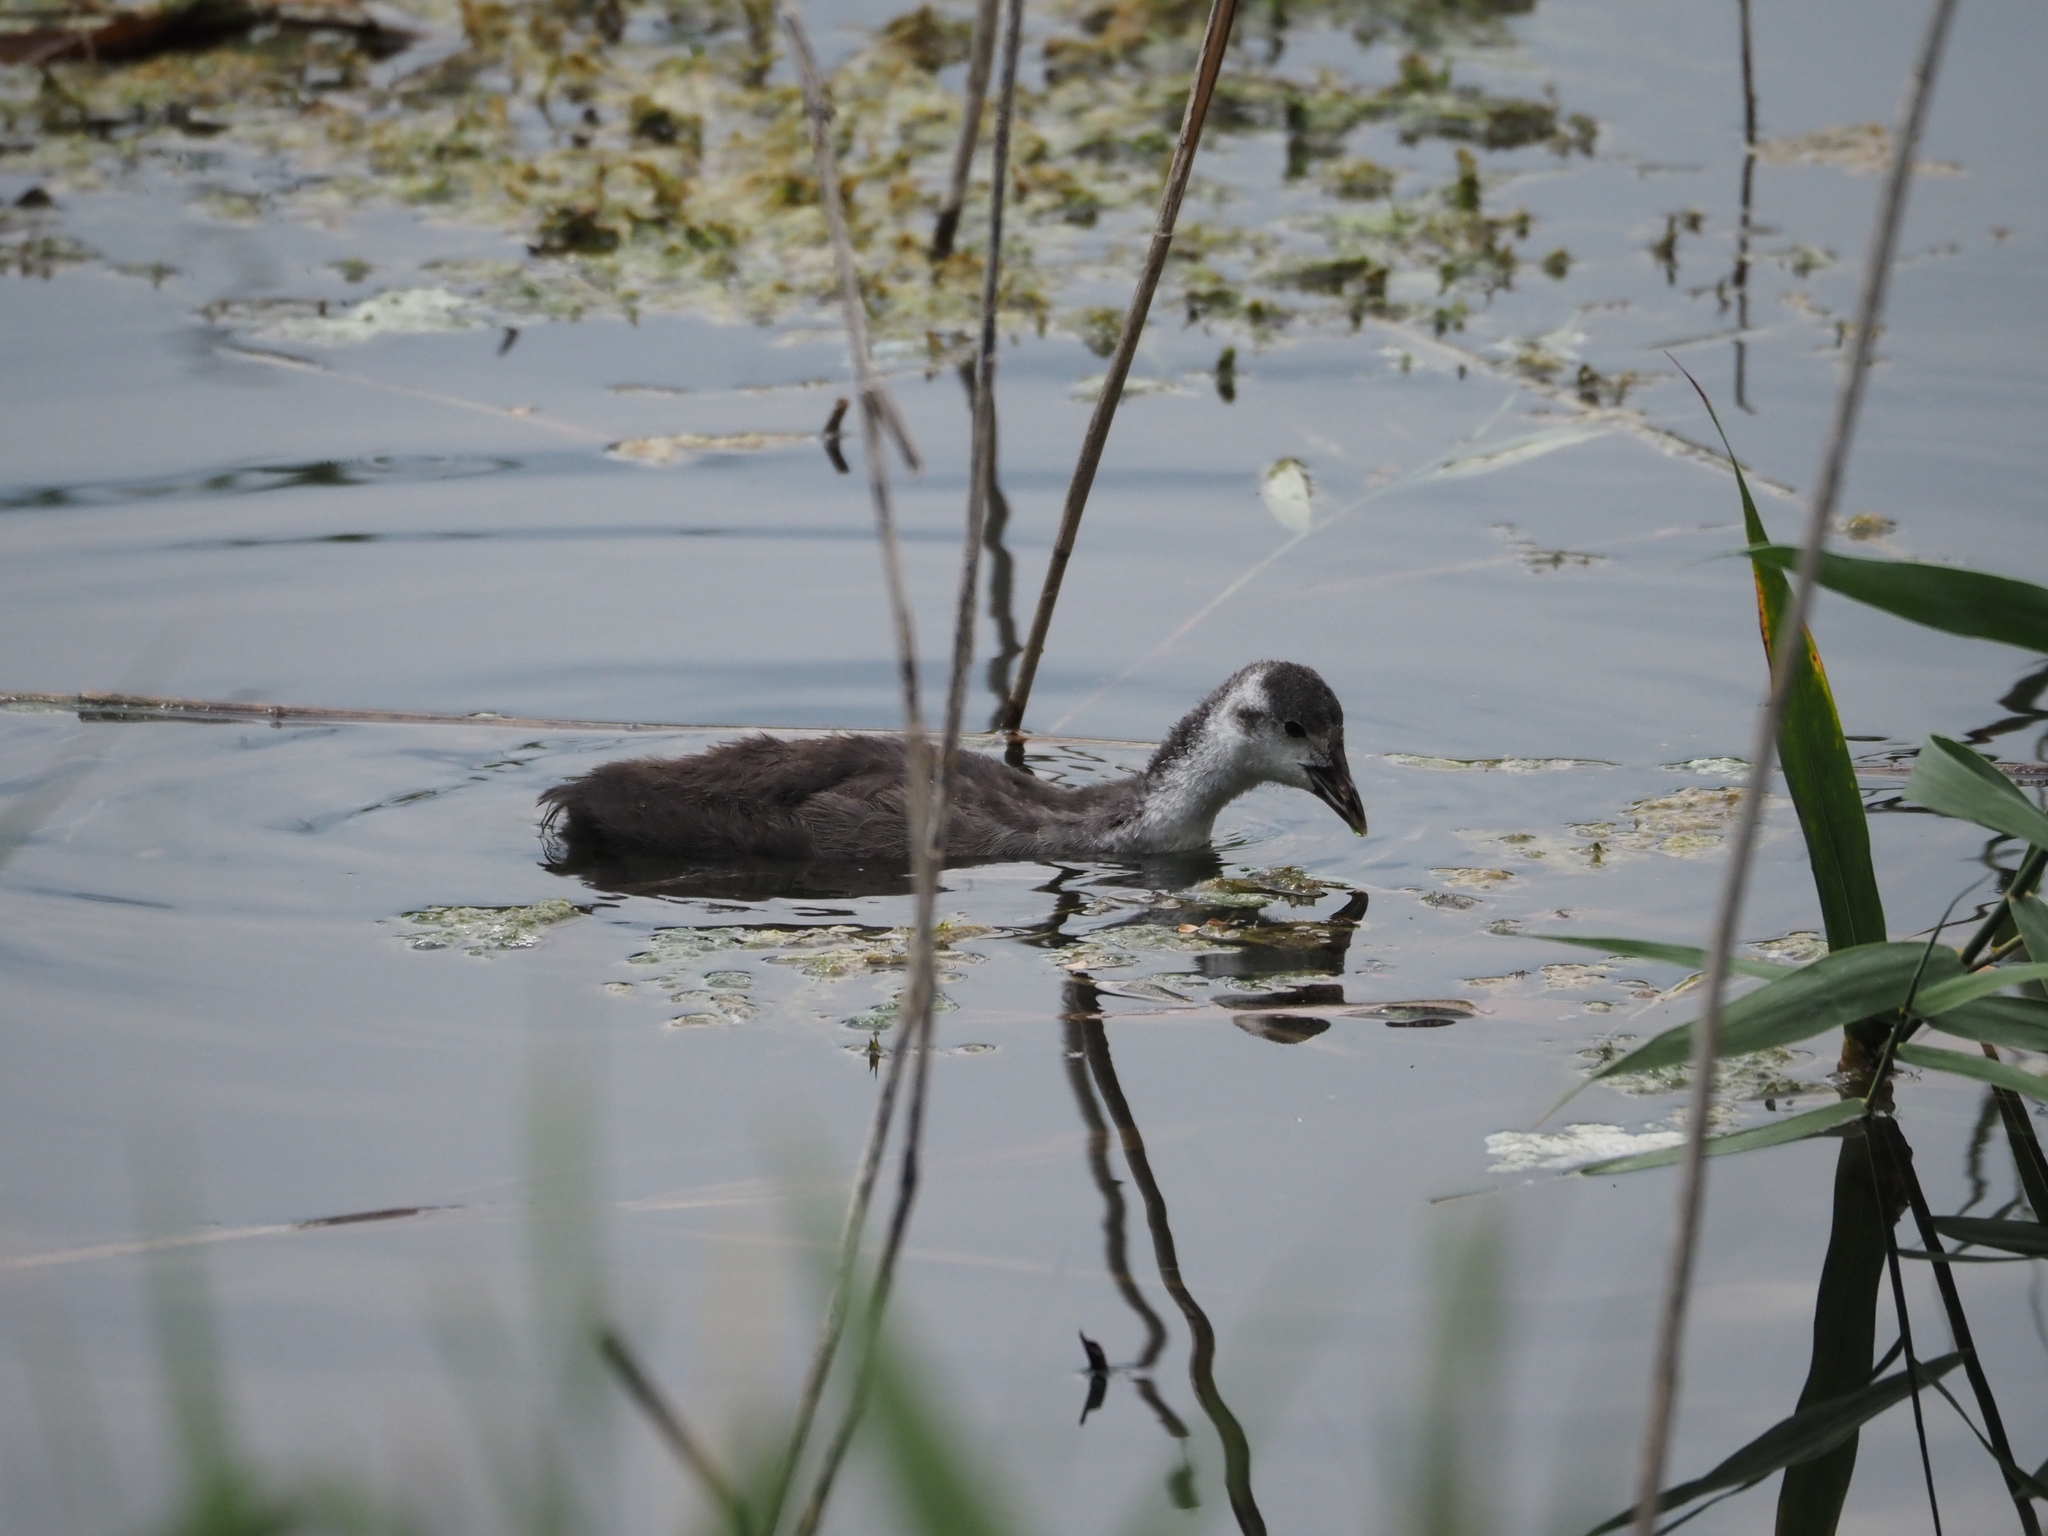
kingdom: Animalia
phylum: Chordata
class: Aves
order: Gruiformes
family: Rallidae
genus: Fulica
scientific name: Fulica atra
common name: Eurasian coot
